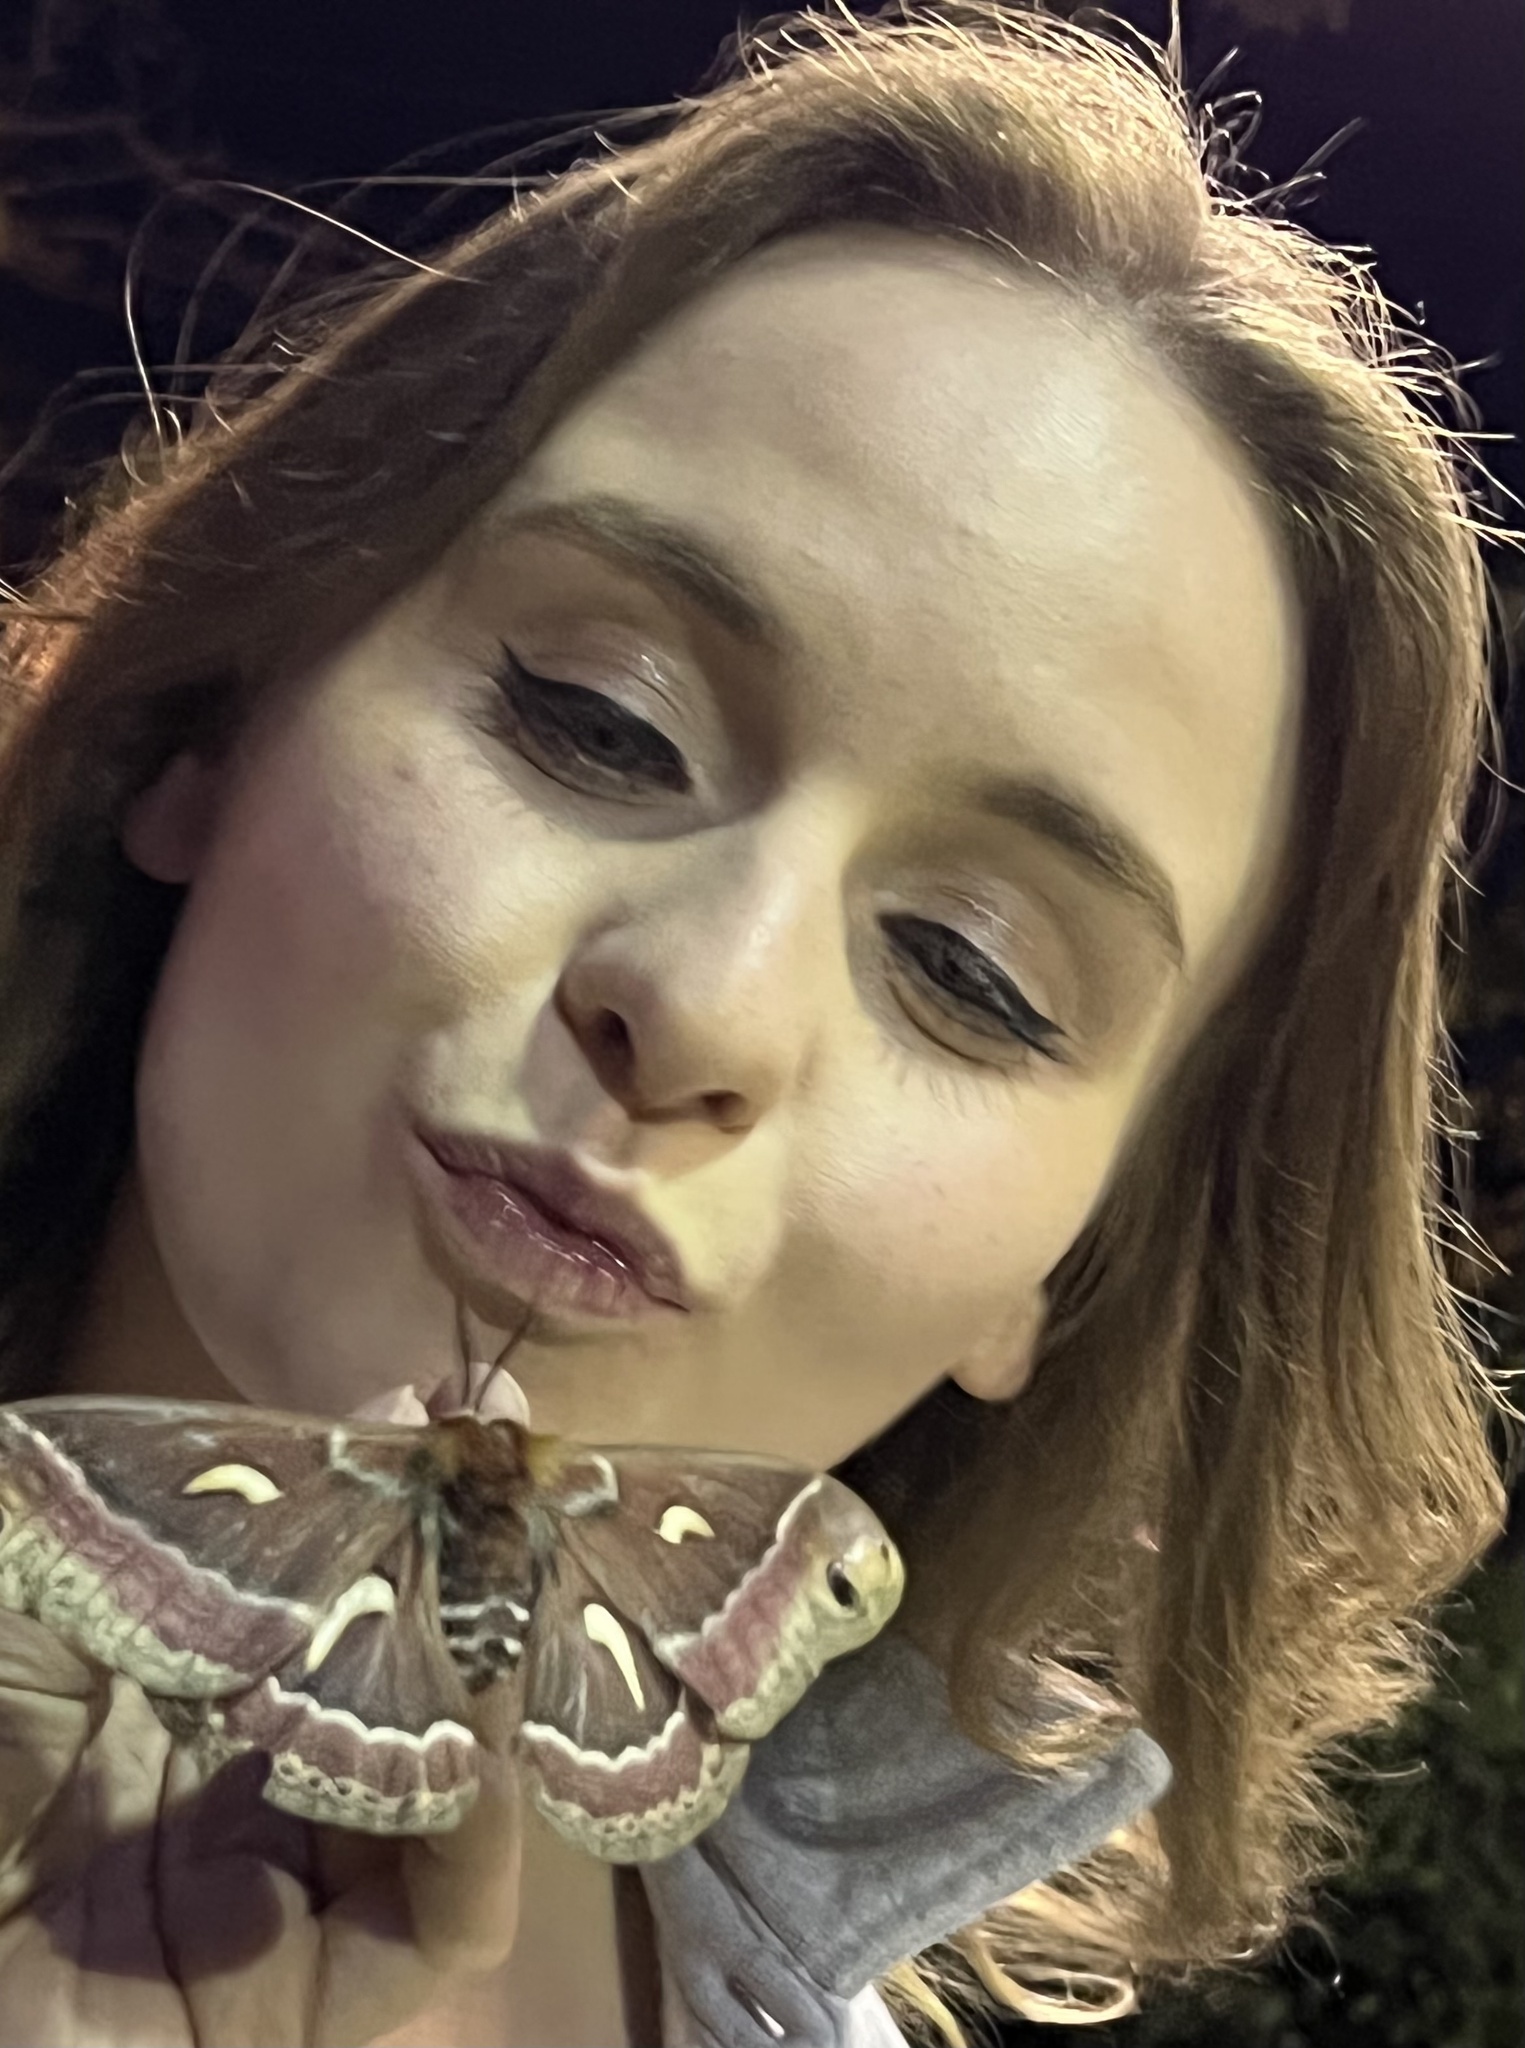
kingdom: Animalia
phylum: Arthropoda
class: Insecta
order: Lepidoptera
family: Saturniidae
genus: Hyalophora
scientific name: Hyalophora euryalus
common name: Ceanothus silkmoth
